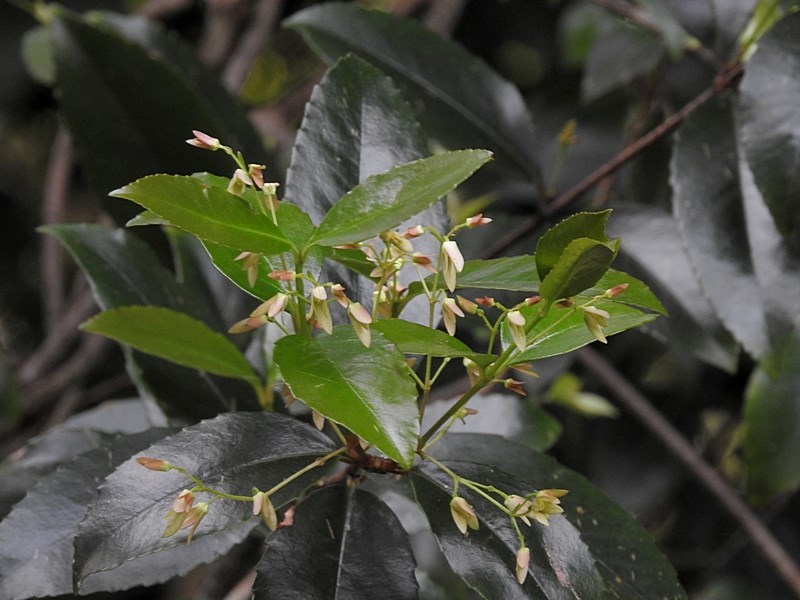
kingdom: Plantae
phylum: Tracheophyta
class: Magnoliopsida
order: Saxifragales
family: Aphanopetalaceae
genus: Aphanopetalum
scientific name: Aphanopetalum resinosum
